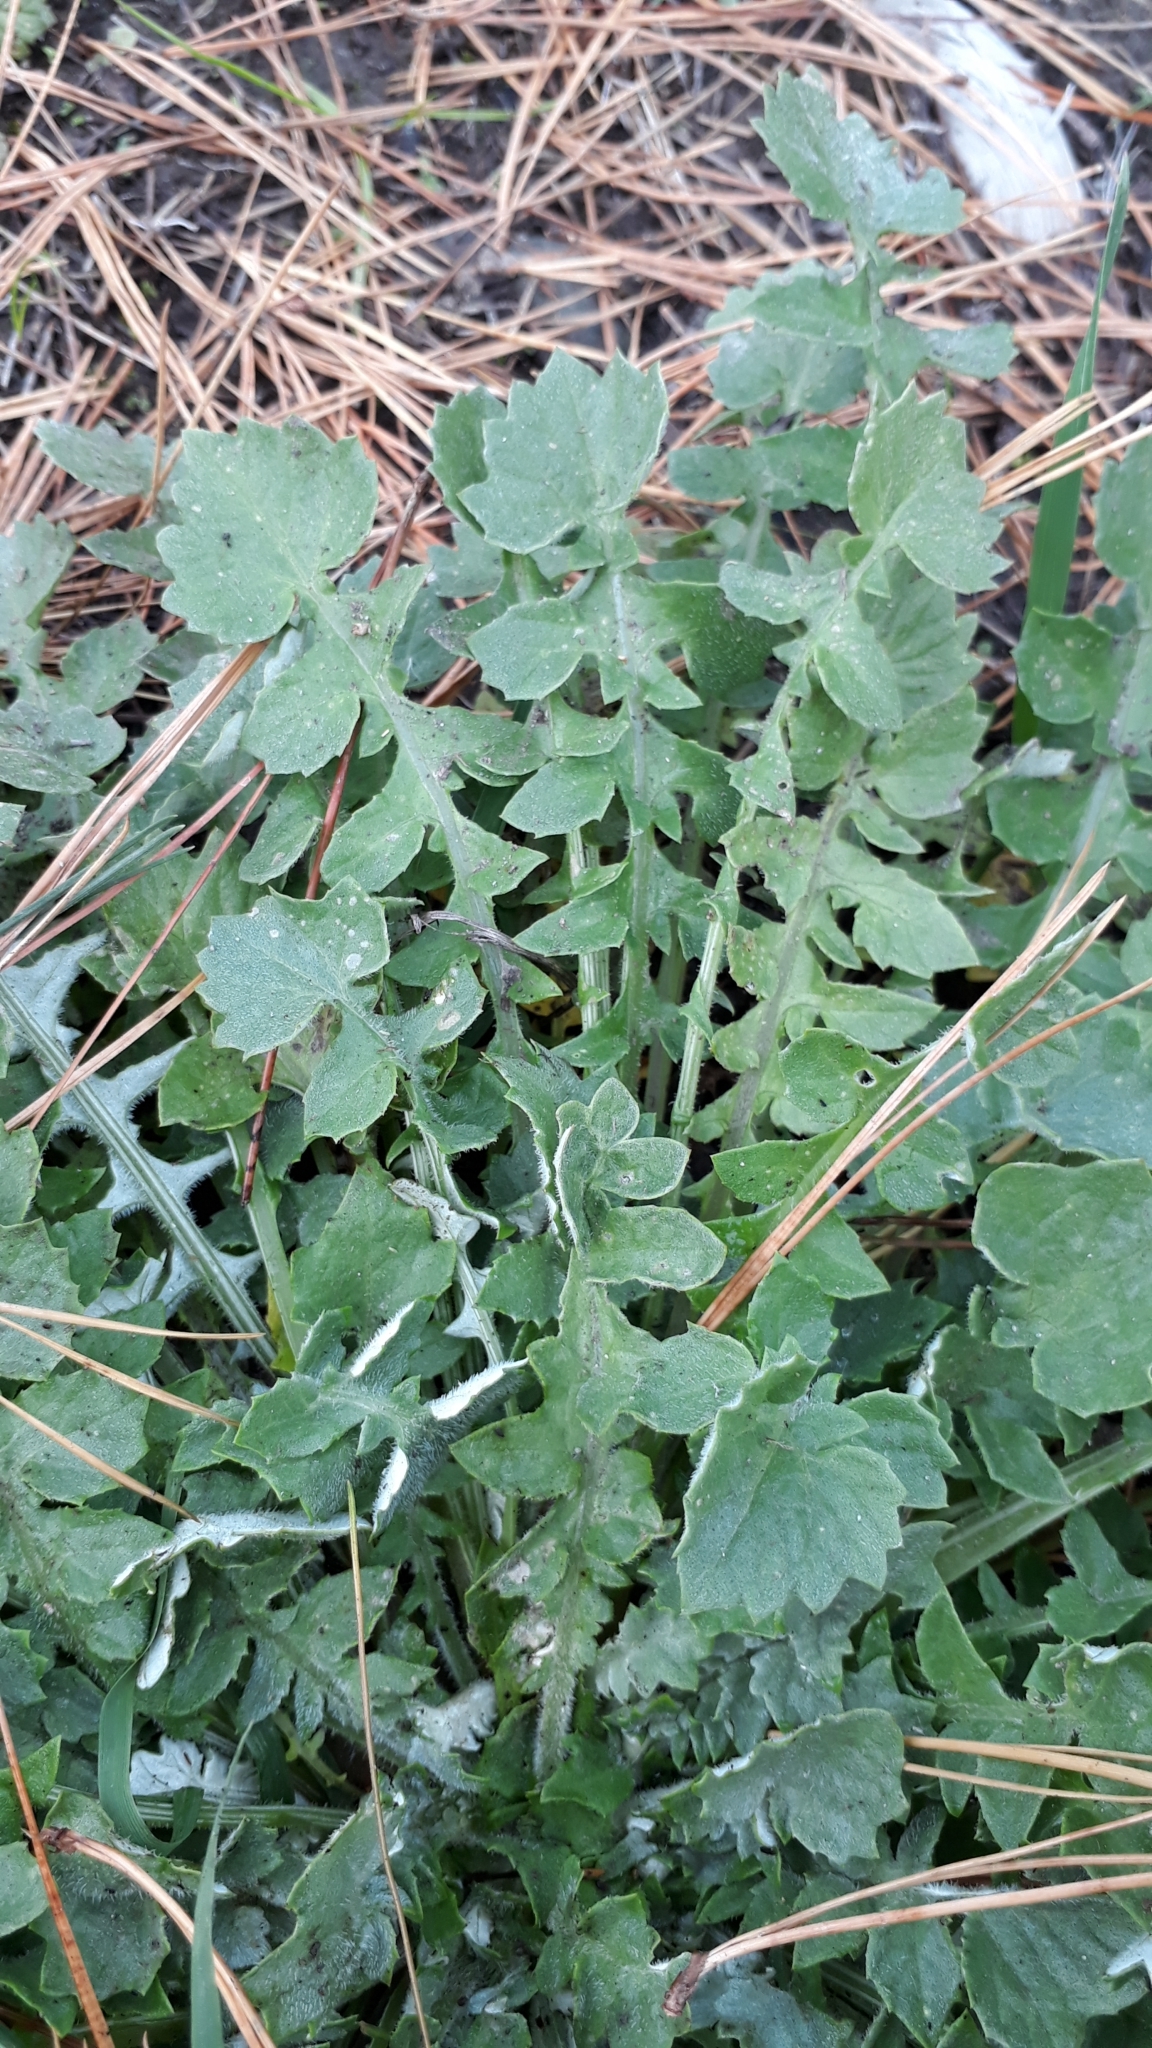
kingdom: Plantae
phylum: Tracheophyta
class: Magnoliopsida
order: Asterales
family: Asteraceae
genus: Arctotheca
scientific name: Arctotheca calendula
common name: Capeweed
